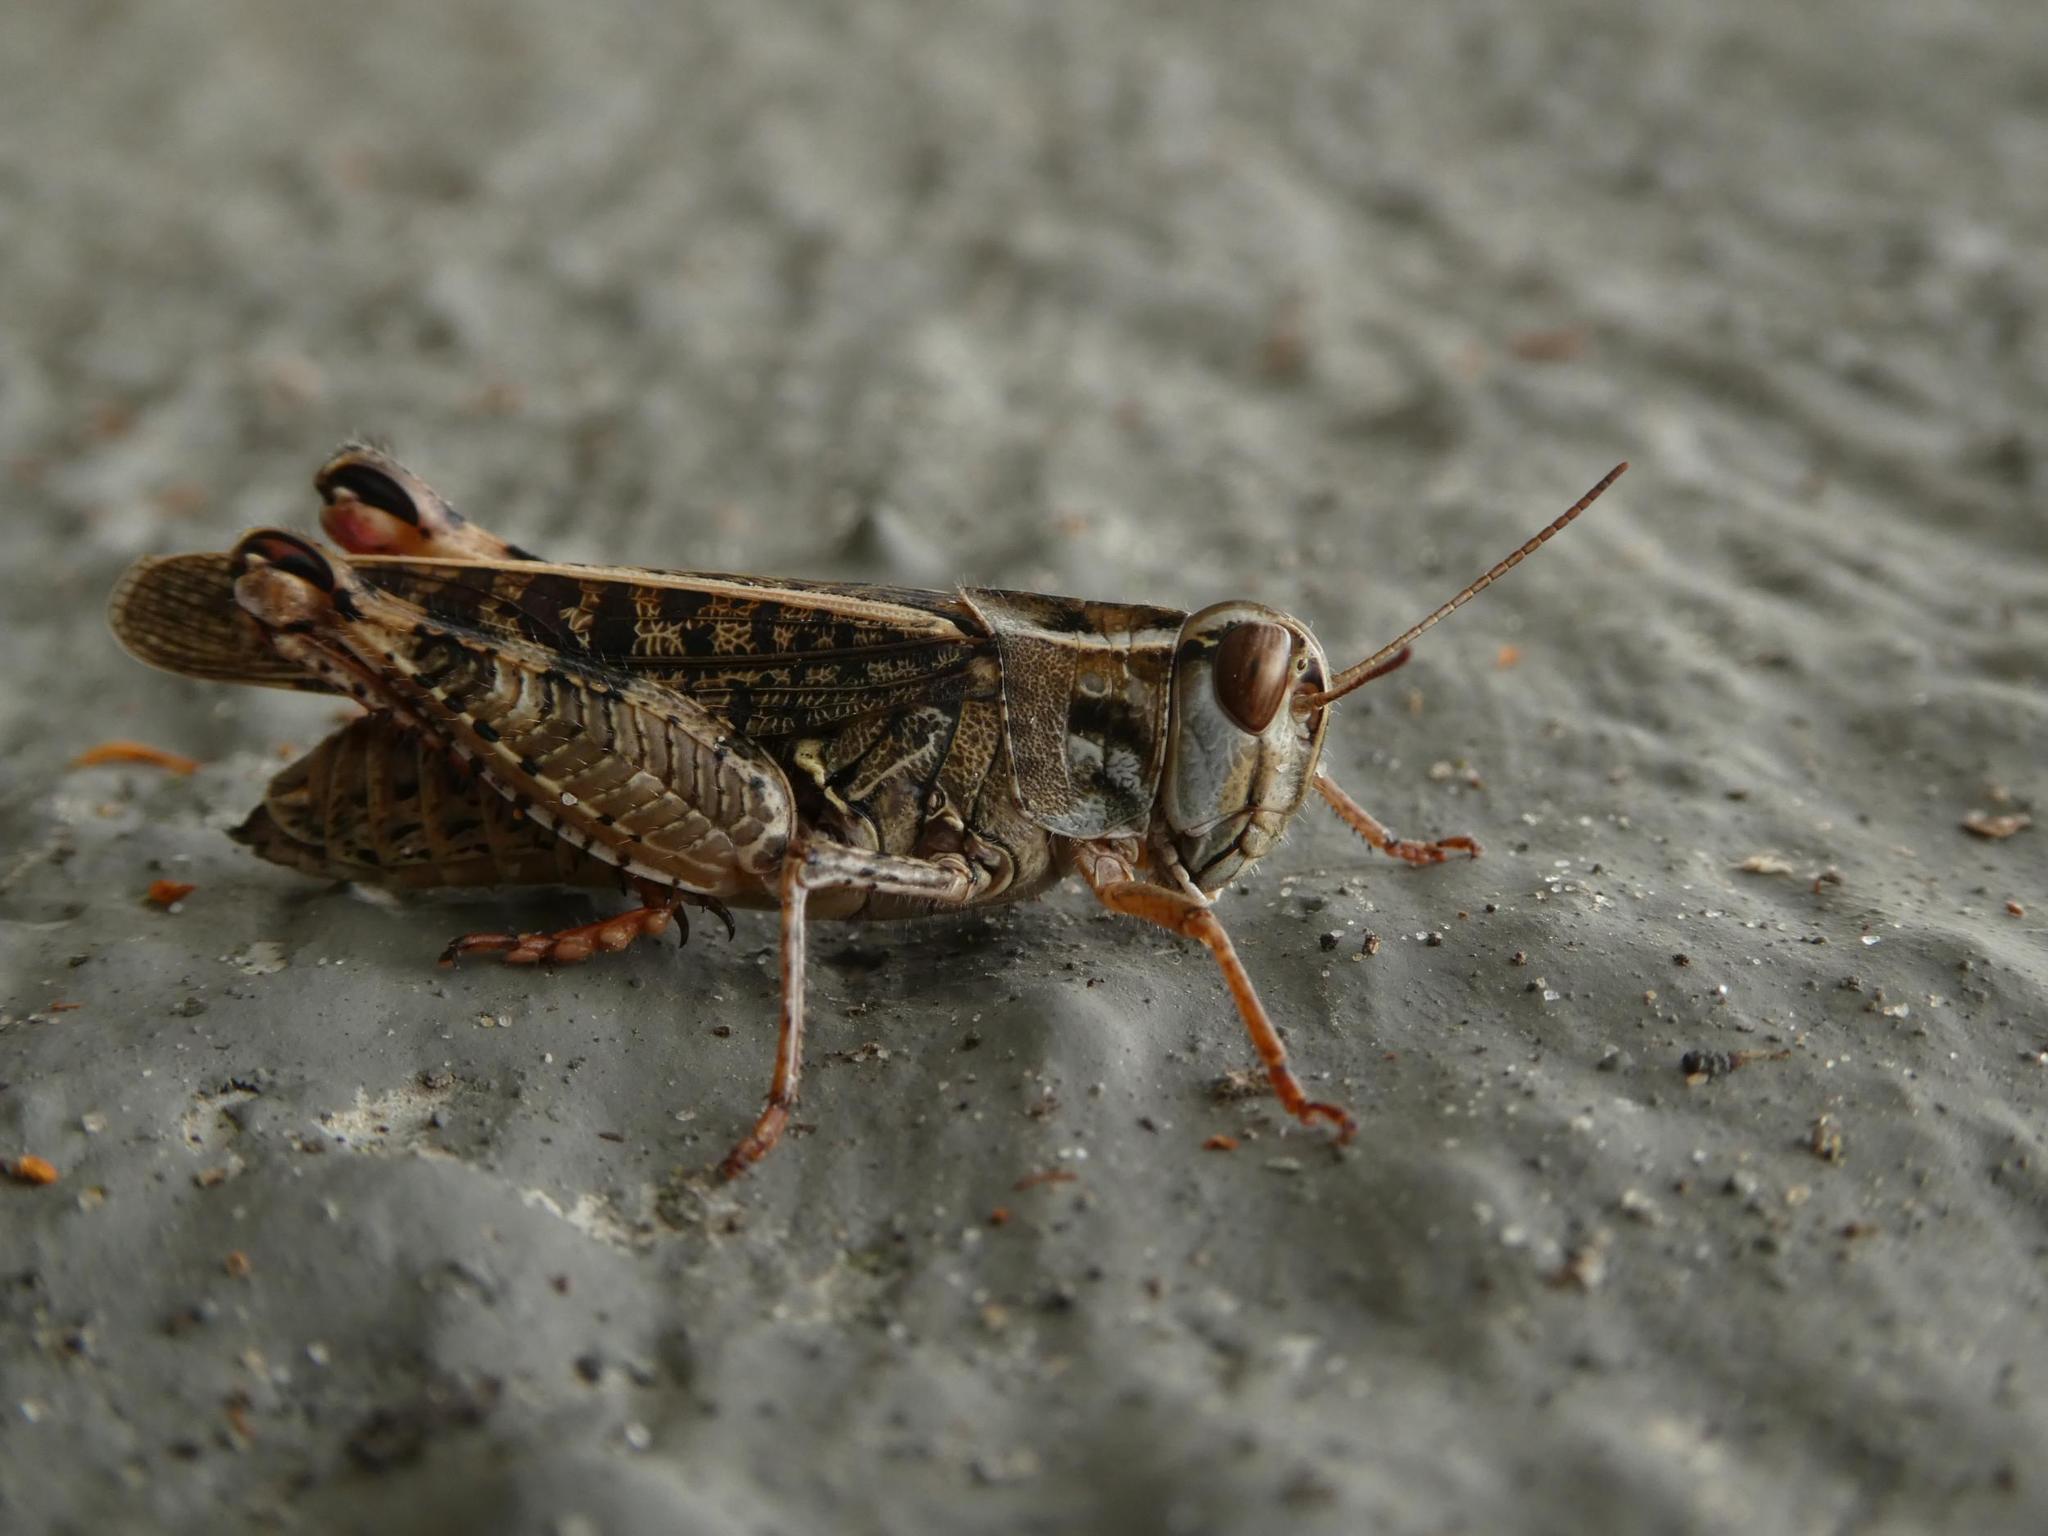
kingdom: Animalia
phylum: Arthropoda
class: Insecta
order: Orthoptera
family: Acrididae
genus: Calliptamus
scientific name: Calliptamus italicus
